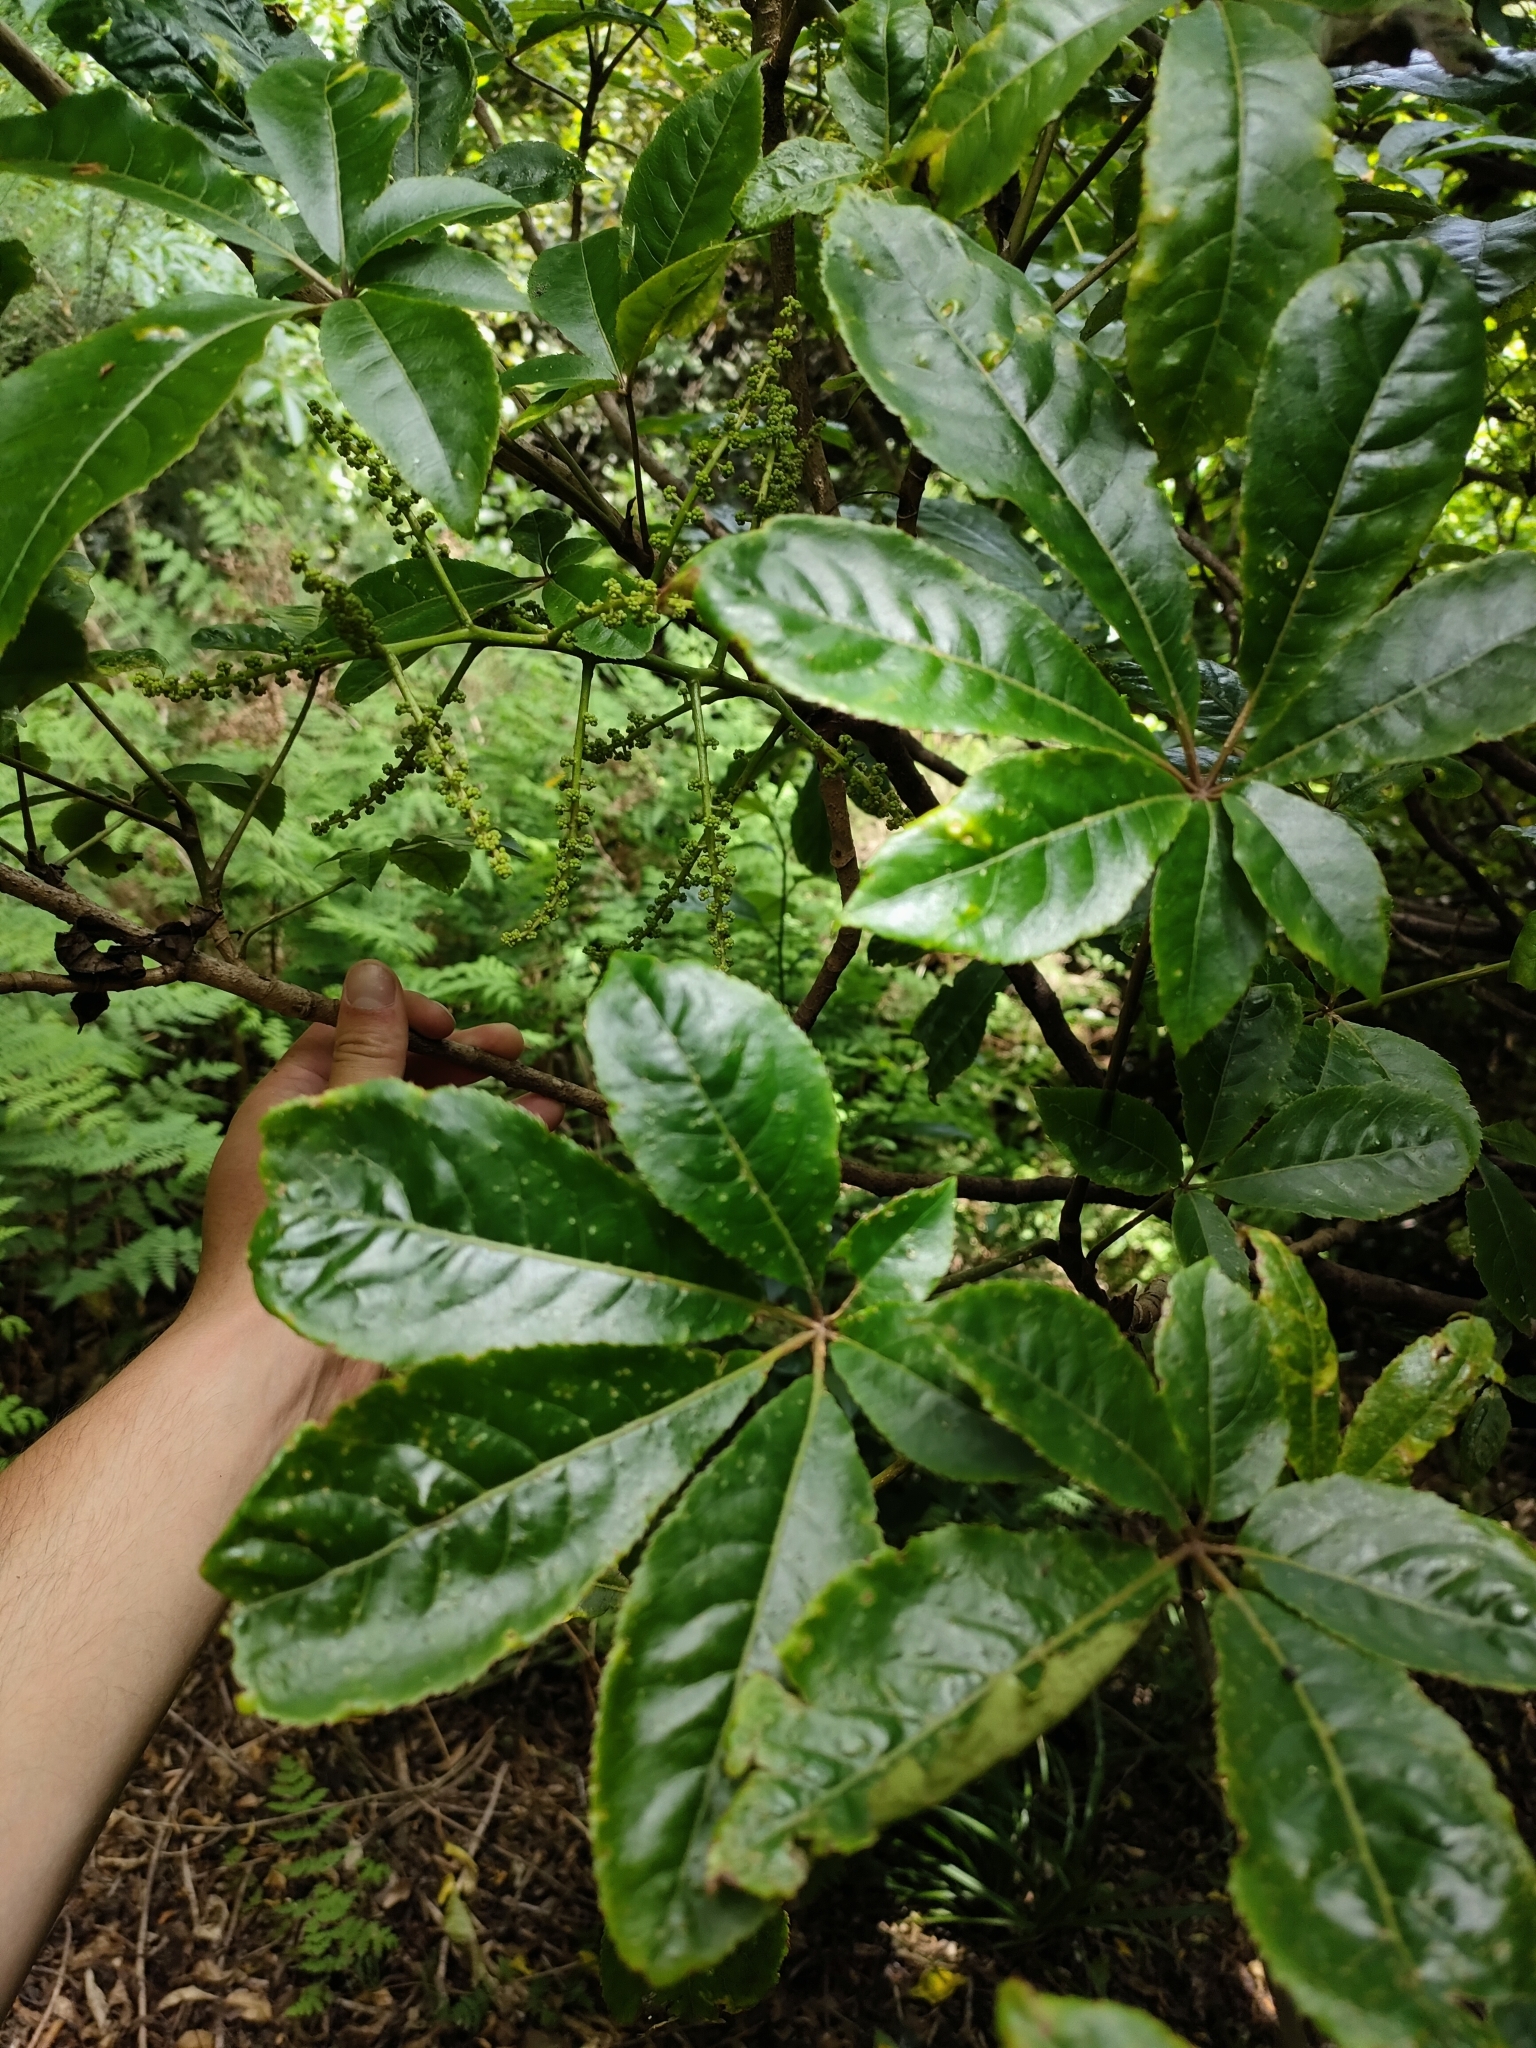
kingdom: Plantae
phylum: Tracheophyta
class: Magnoliopsida
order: Apiales
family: Araliaceae
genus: Schefflera
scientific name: Schefflera digitata
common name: Pate
